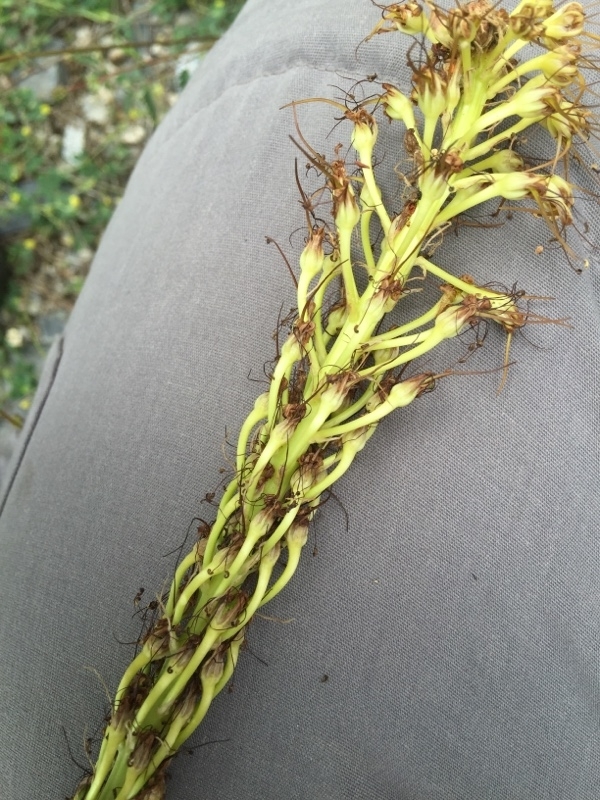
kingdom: Plantae
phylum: Tracheophyta
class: Liliopsida
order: Asparagales
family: Asphodelaceae
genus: Eremurus
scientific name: Eremurus spectabilis
